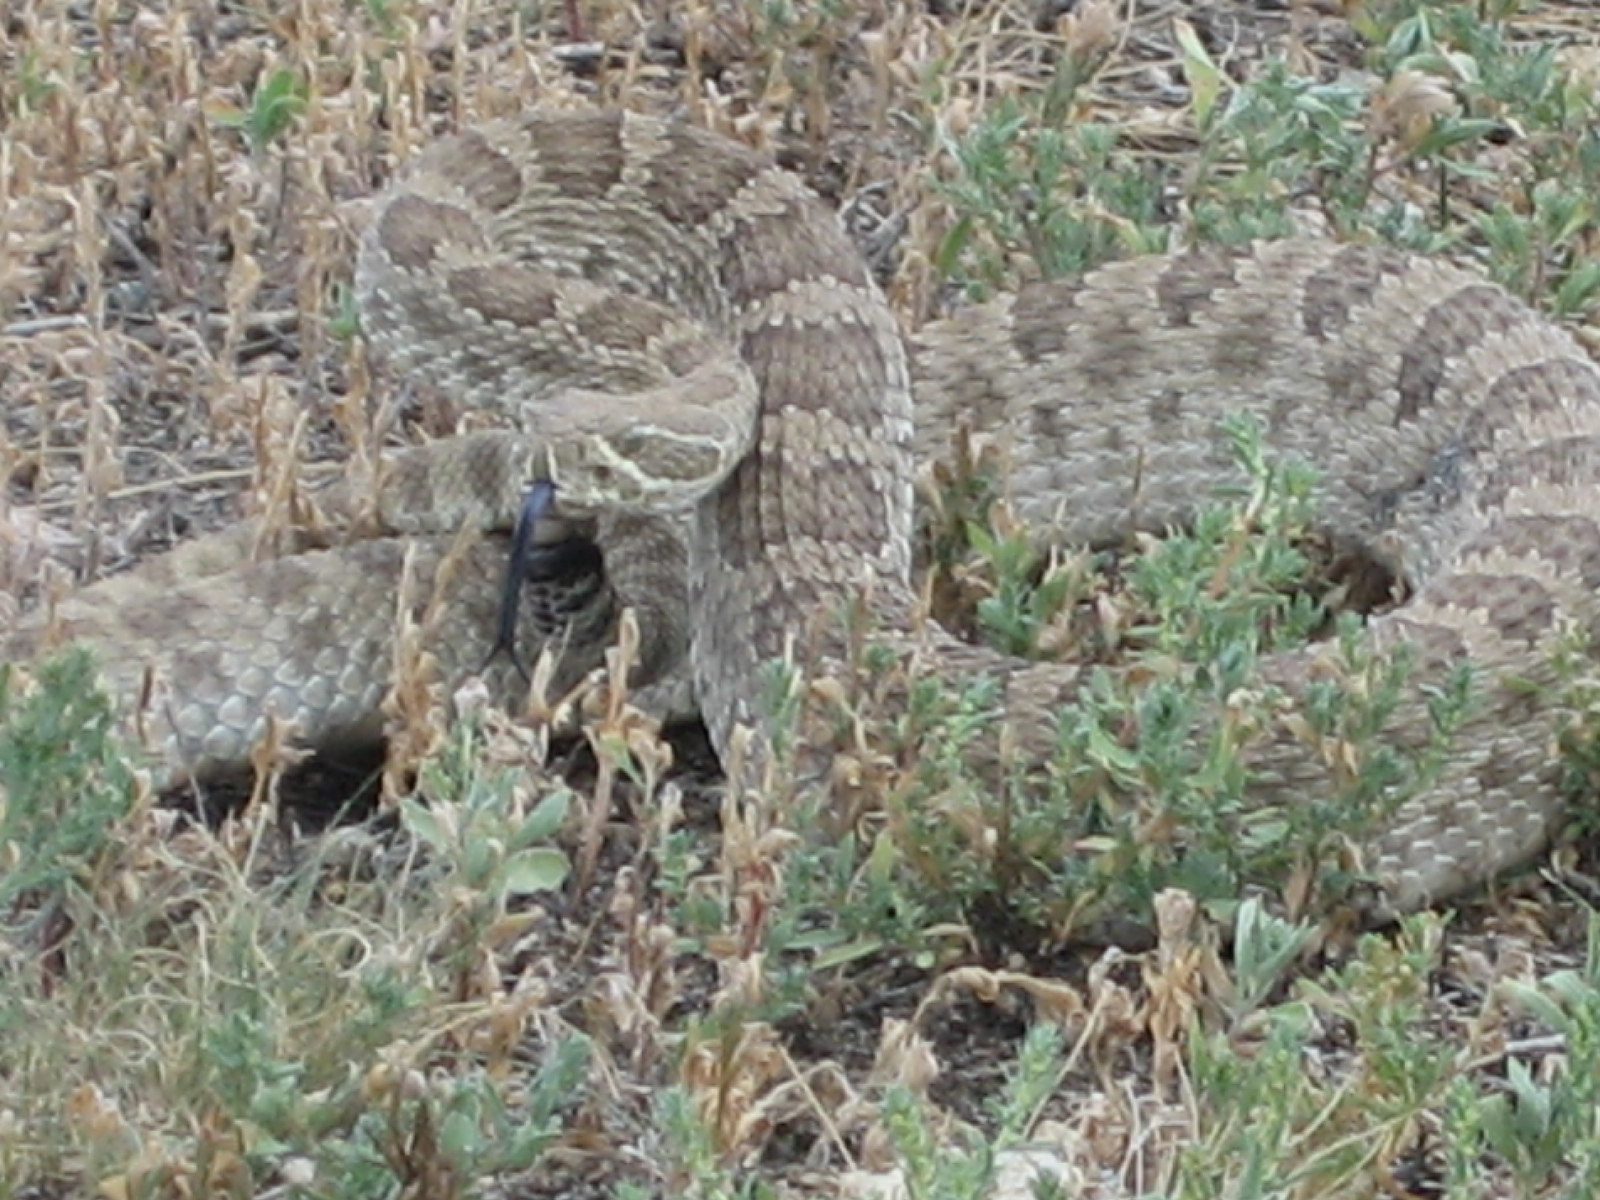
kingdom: Animalia
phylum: Chordata
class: Squamata
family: Viperidae
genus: Crotalus
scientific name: Crotalus viridis
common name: Prairie rattlesnake
